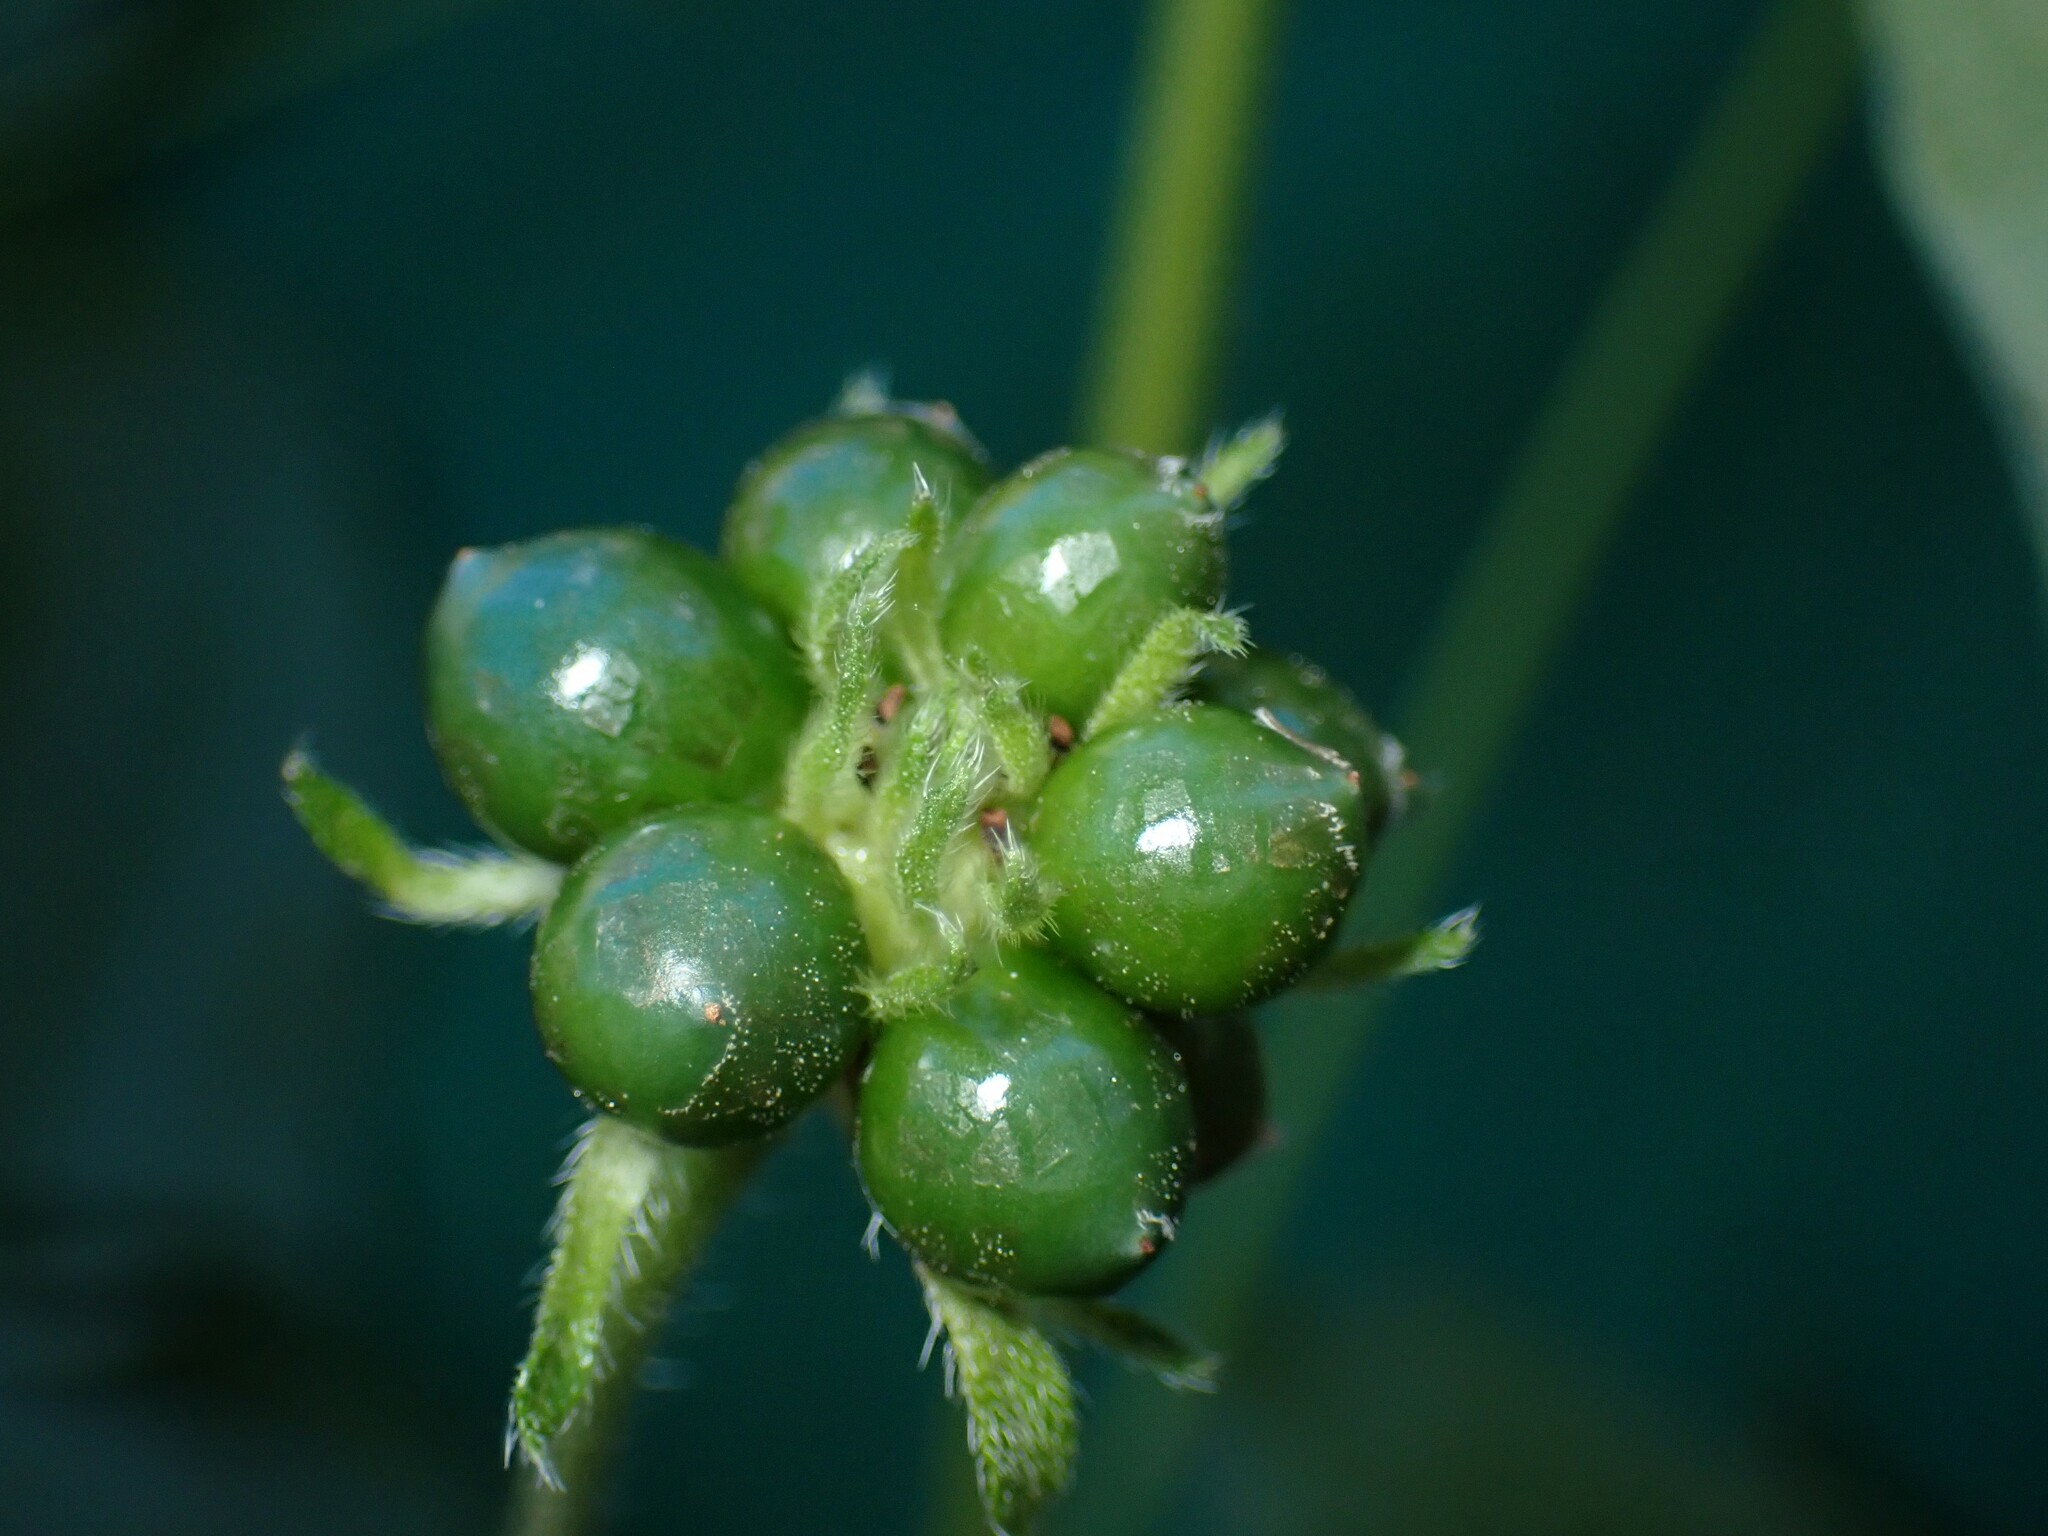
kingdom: Plantae
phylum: Tracheophyta
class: Magnoliopsida
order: Lamiales
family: Verbenaceae
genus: Lantana
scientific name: Lantana camara
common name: Lantana
